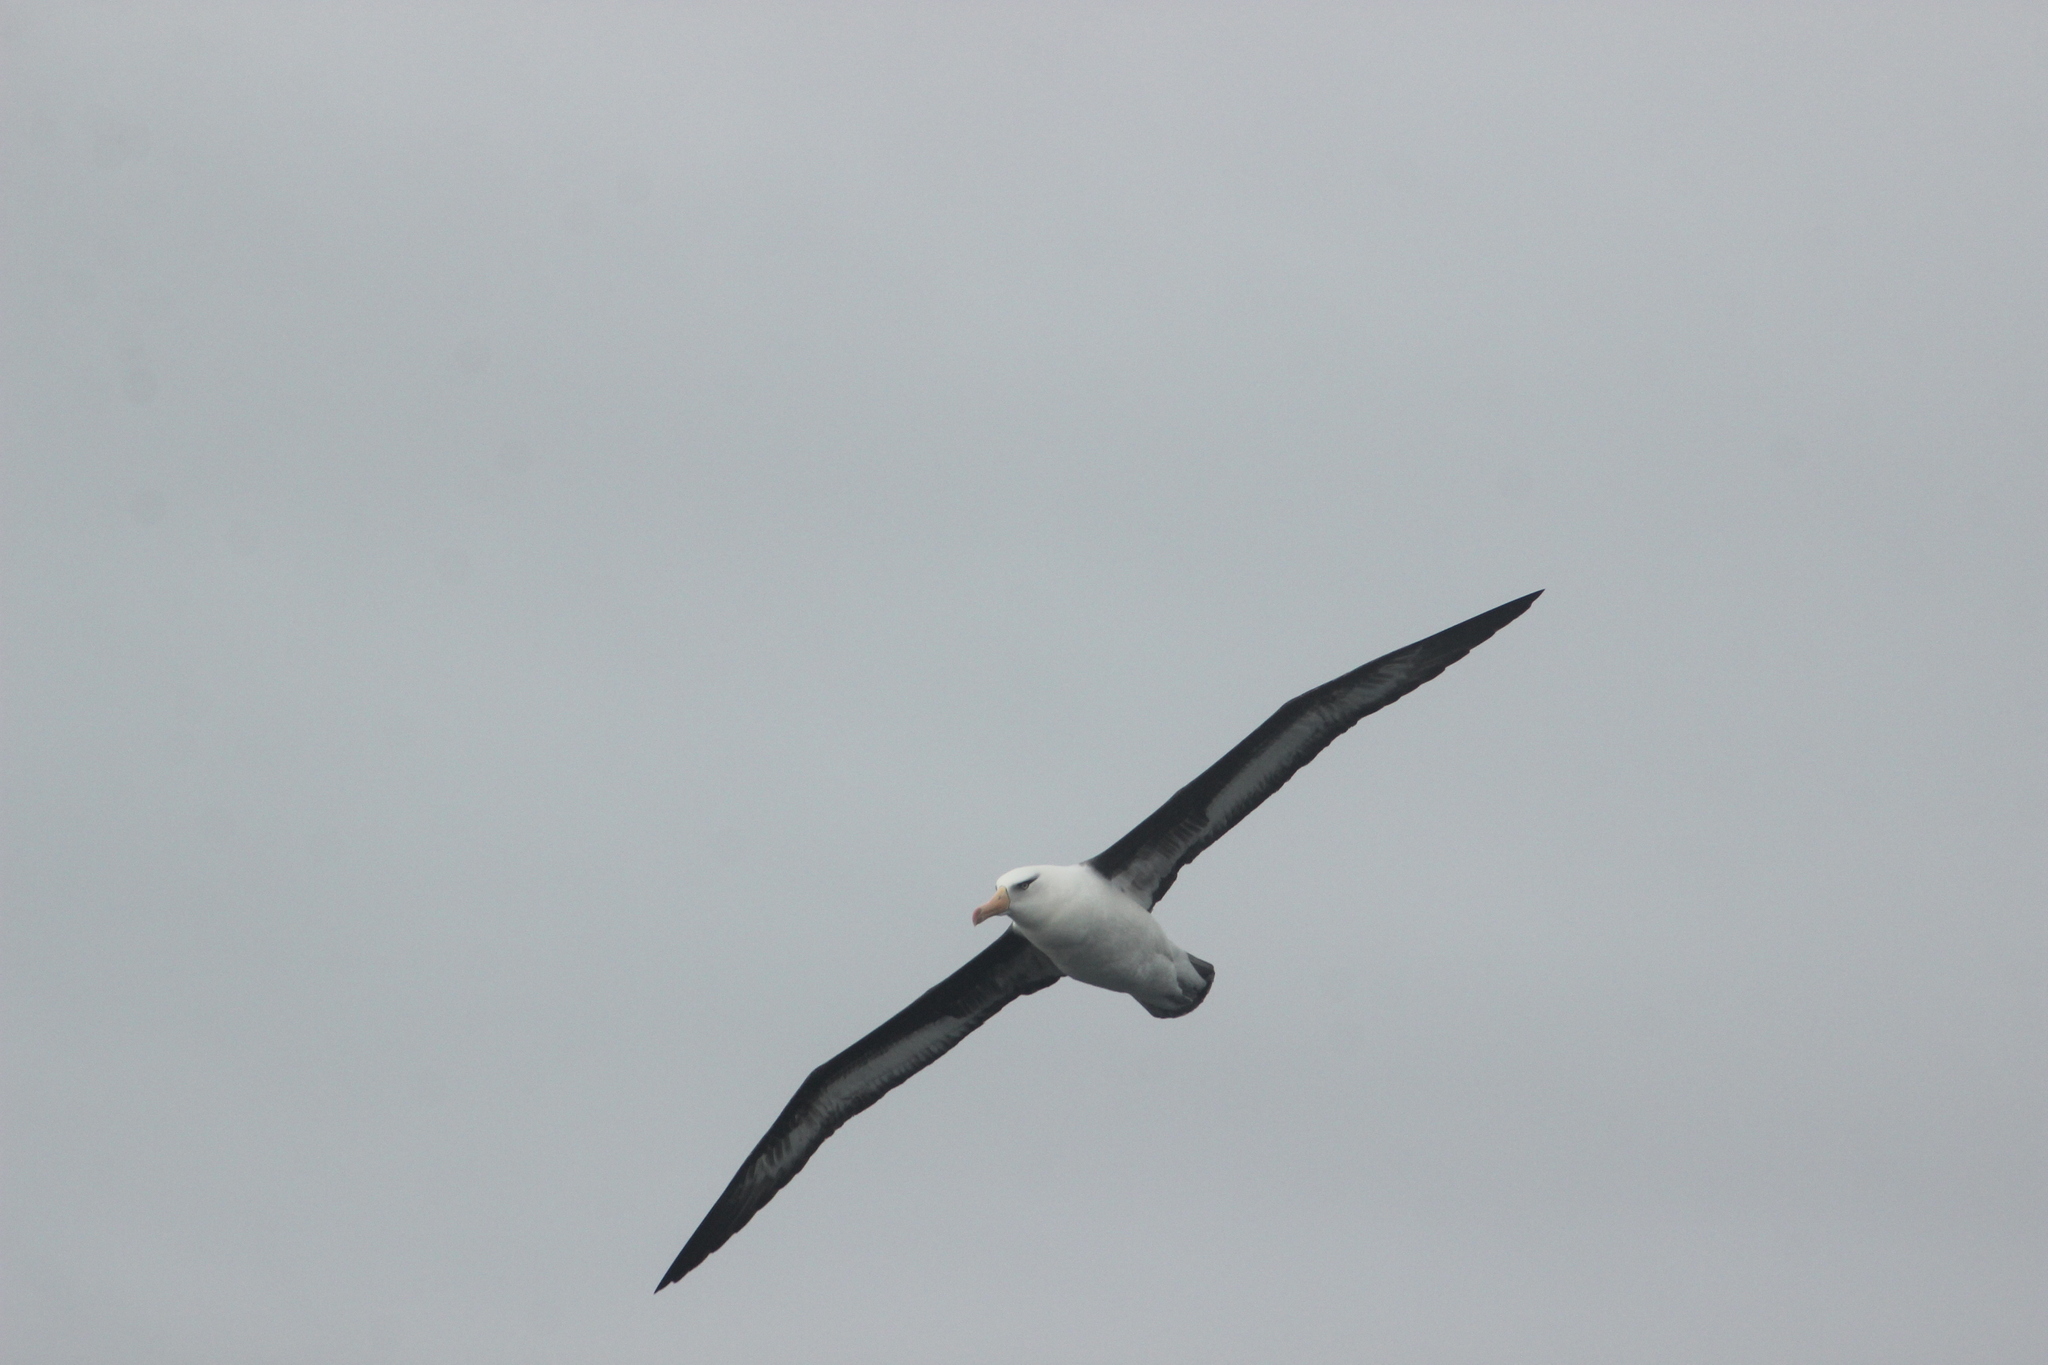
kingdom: Animalia
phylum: Chordata
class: Aves
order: Procellariiformes
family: Diomedeidae
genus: Thalassarche
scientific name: Thalassarche impavida
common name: Campbell albatross
